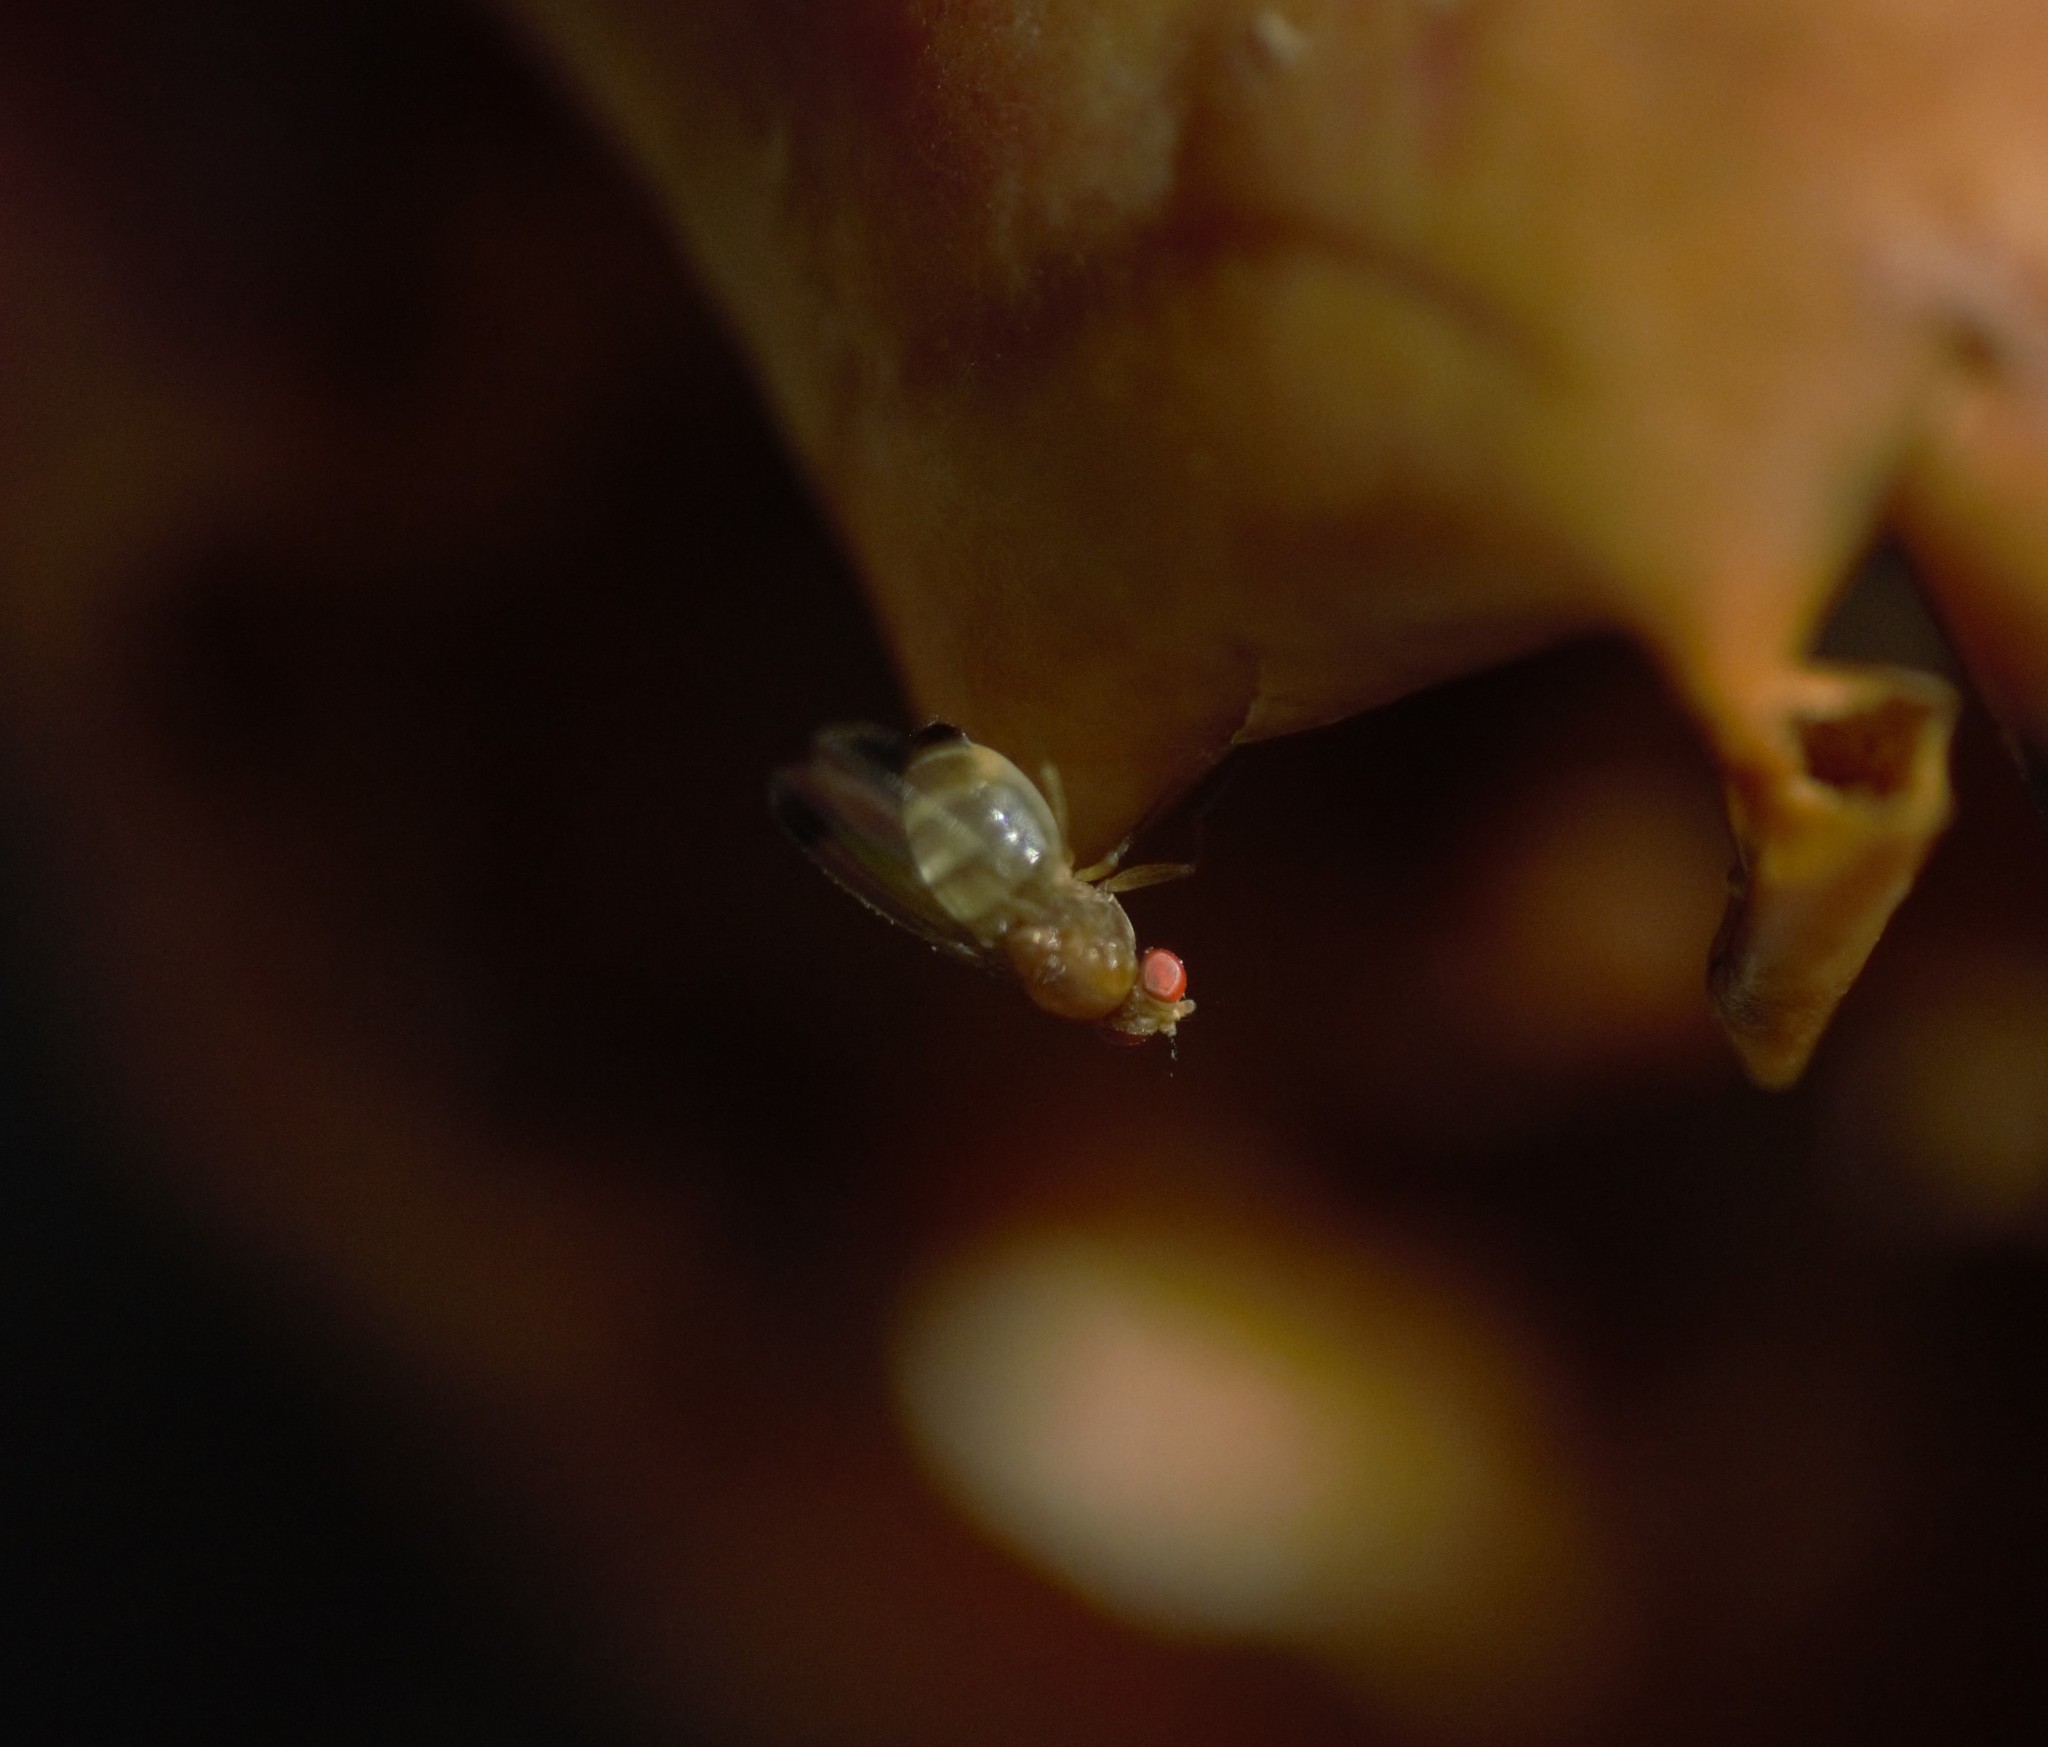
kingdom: Animalia
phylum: Arthropoda
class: Insecta
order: Diptera
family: Drosophilidae
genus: Drosophila
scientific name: Drosophila suzukii
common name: Spotted-wing drosophila
